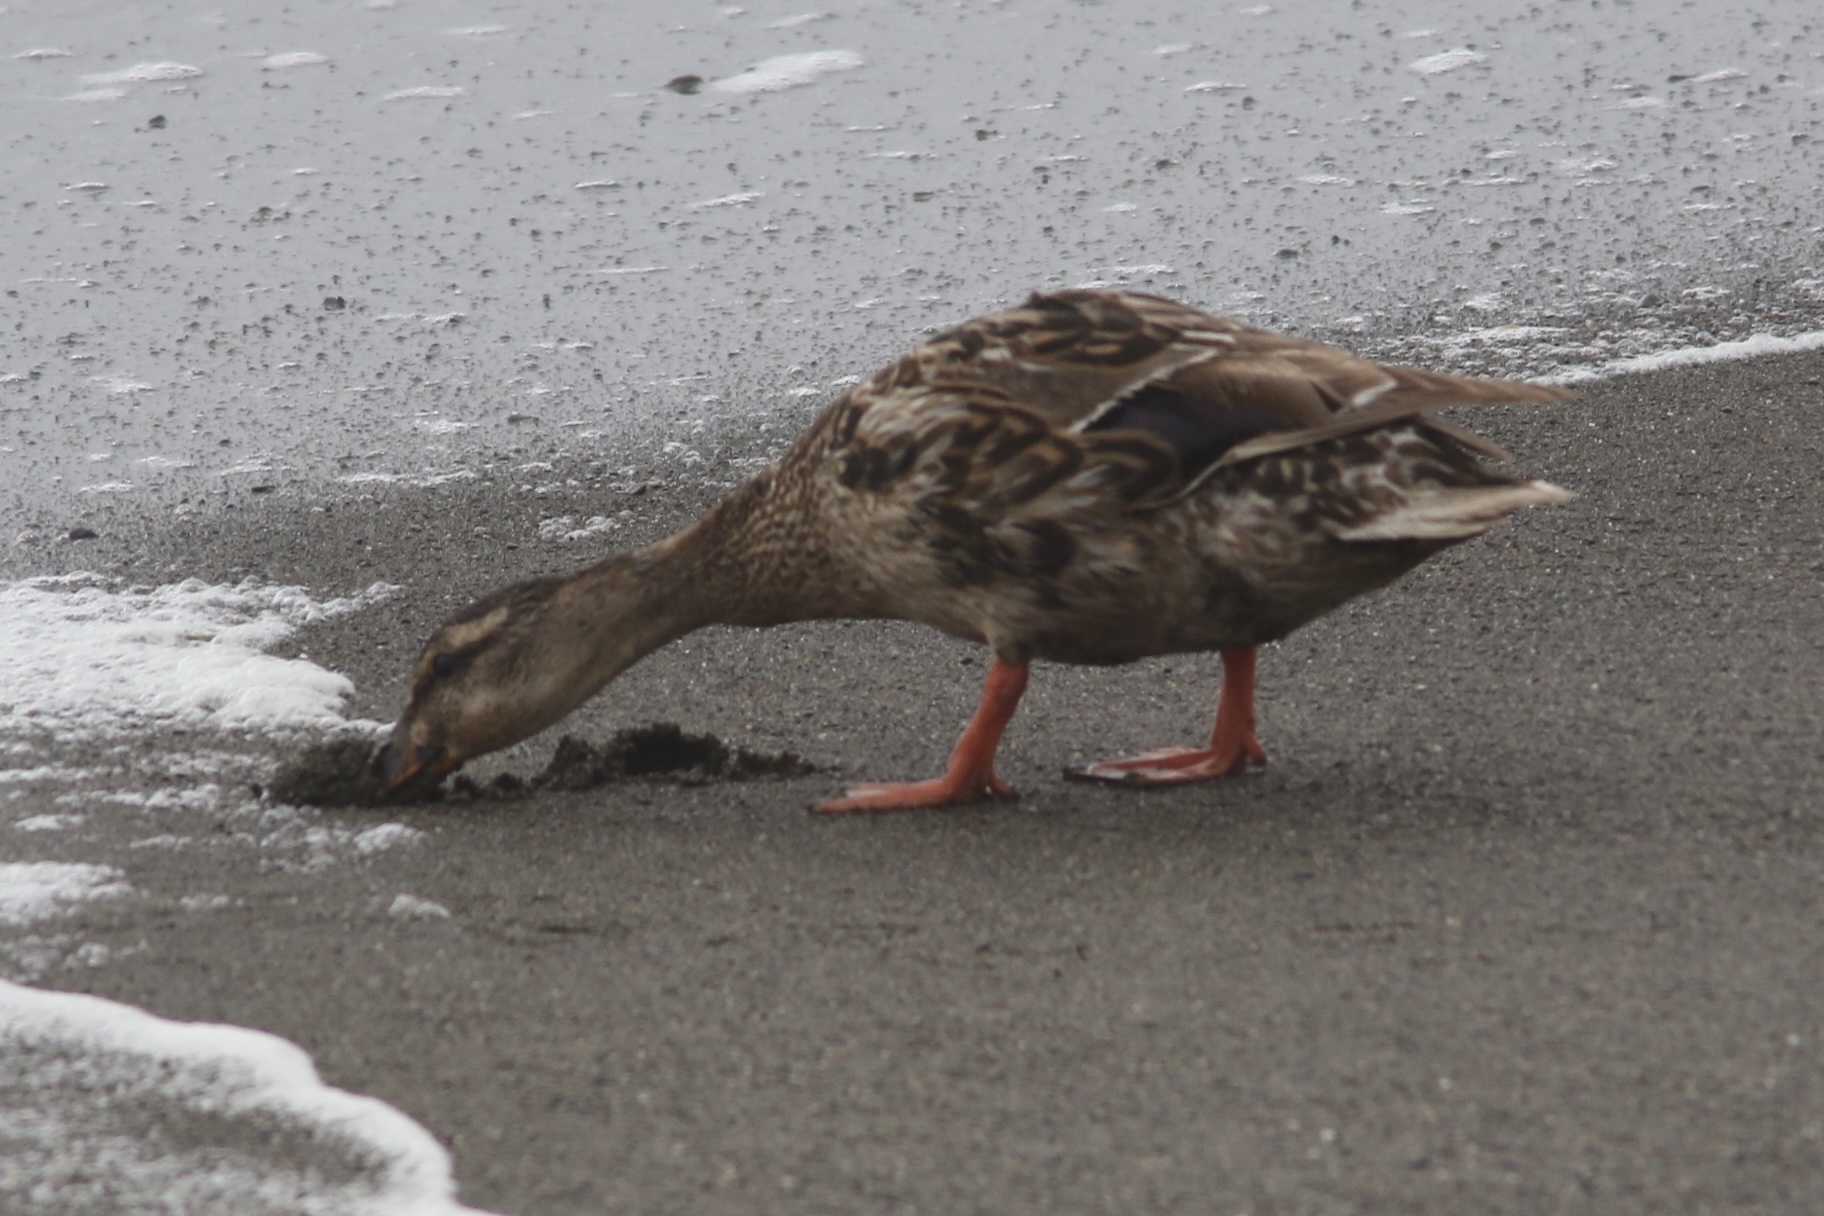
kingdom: Animalia
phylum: Chordata
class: Aves
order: Anseriformes
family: Anatidae
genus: Anas
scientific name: Anas platyrhynchos
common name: Mallard
